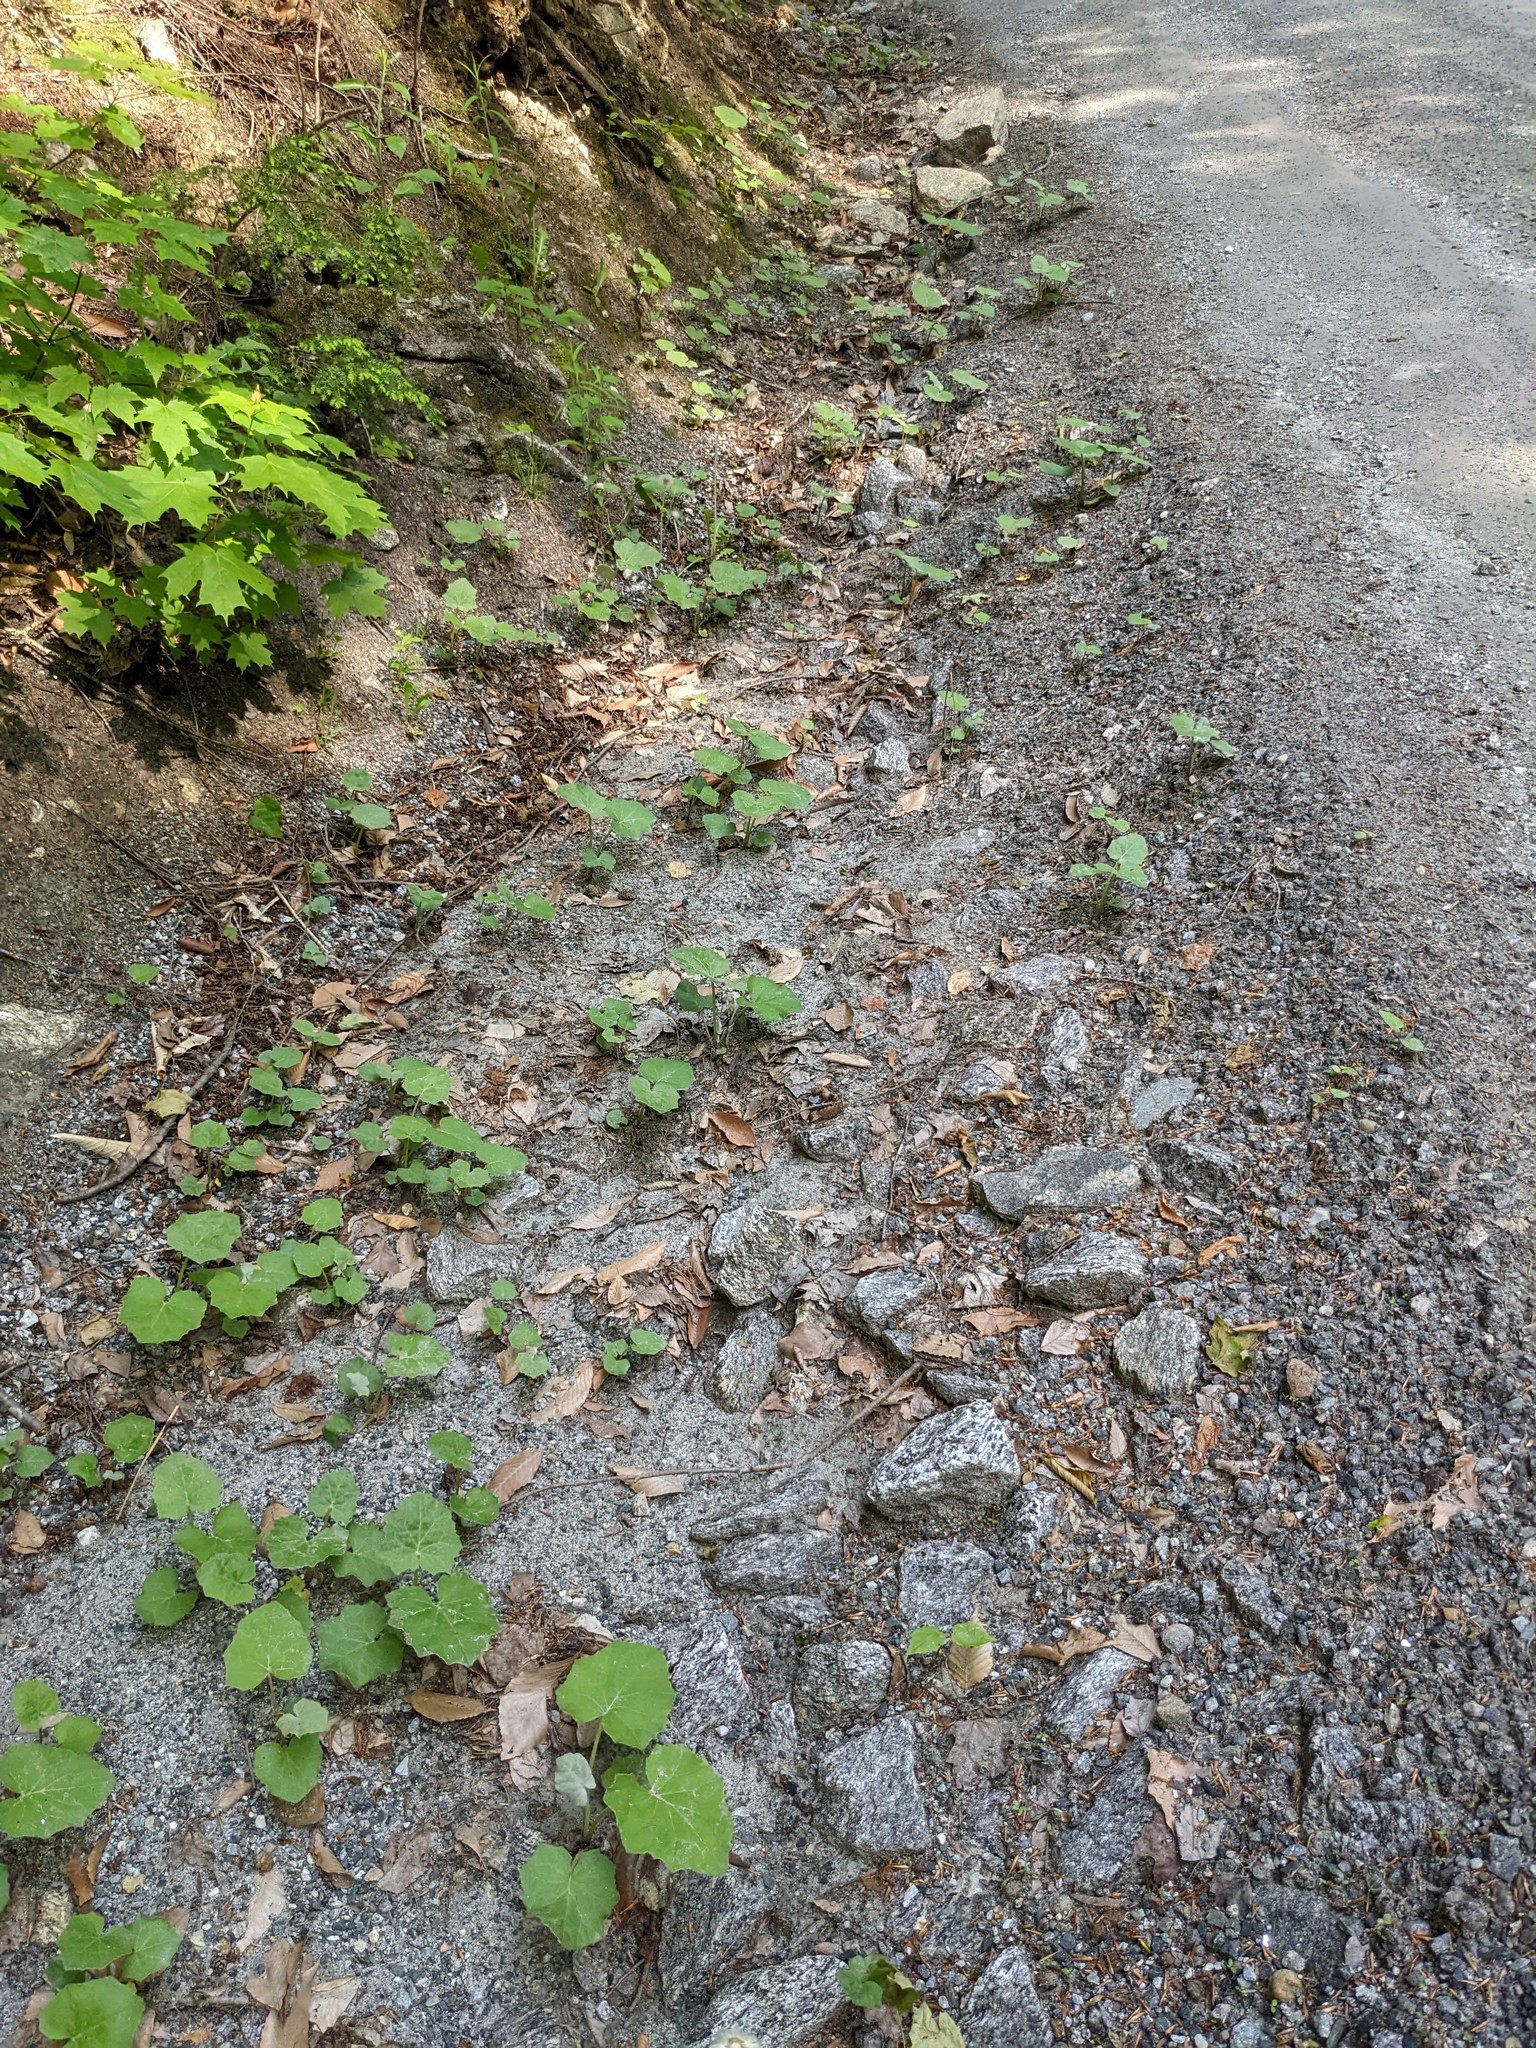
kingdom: Plantae
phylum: Tracheophyta
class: Magnoliopsida
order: Asterales
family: Asteraceae
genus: Tussilago
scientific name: Tussilago farfara
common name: Coltsfoot
